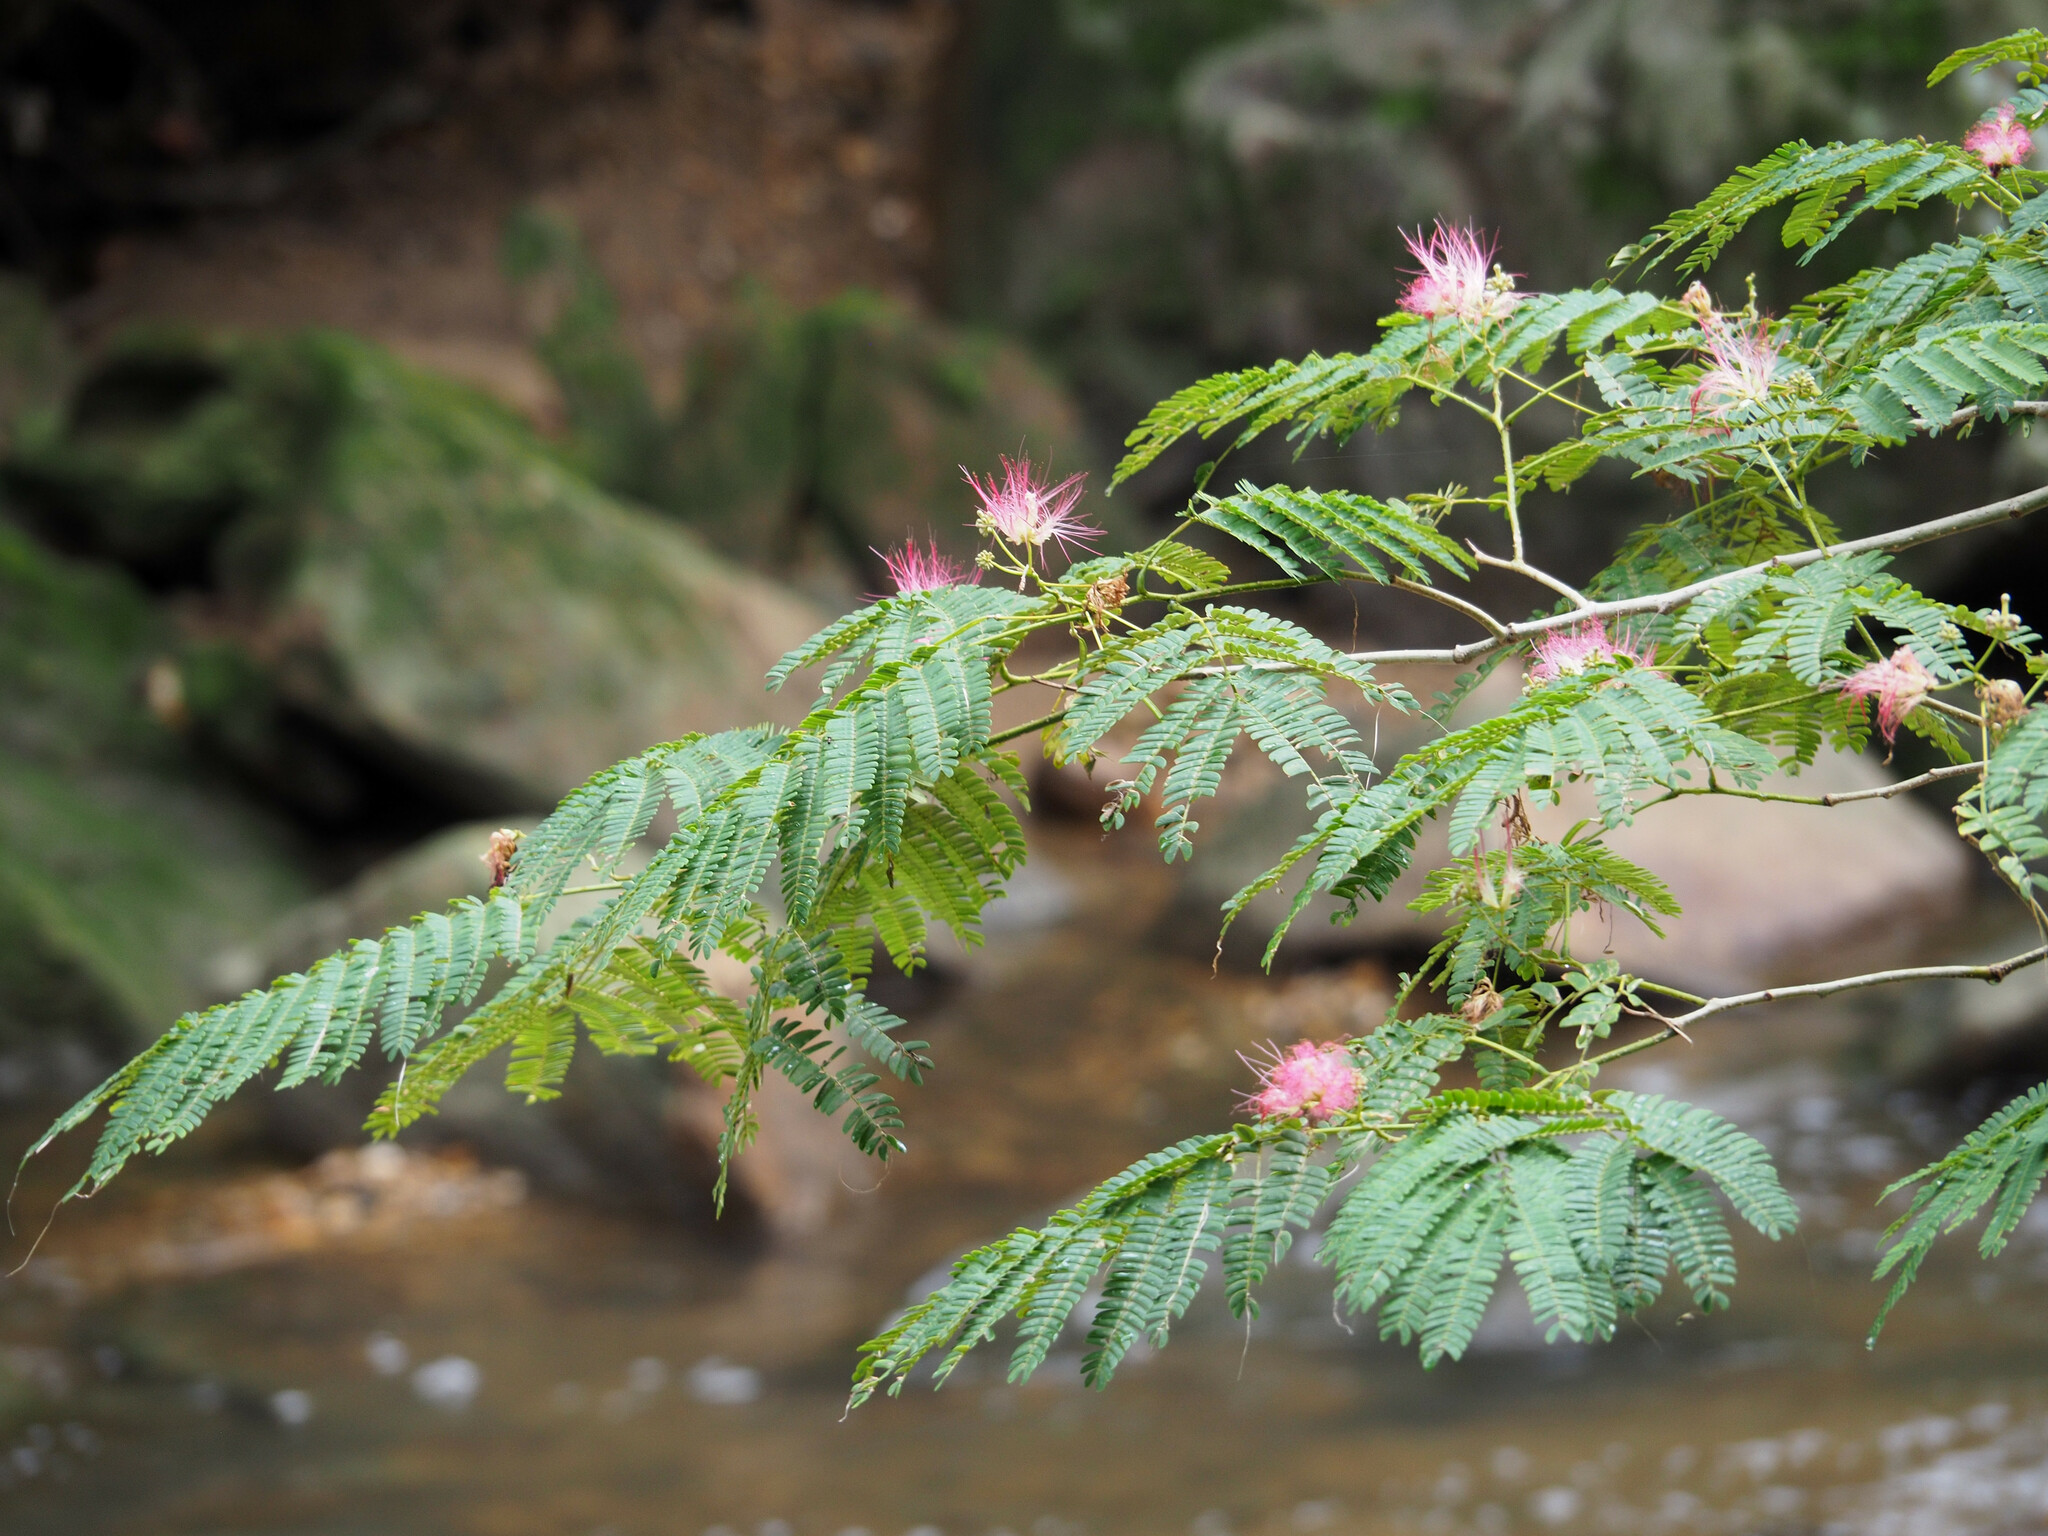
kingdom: Plantae
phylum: Tracheophyta
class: Magnoliopsida
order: Fabales
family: Fabaceae
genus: Albizia
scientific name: Albizia julibrissin
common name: Silktree
